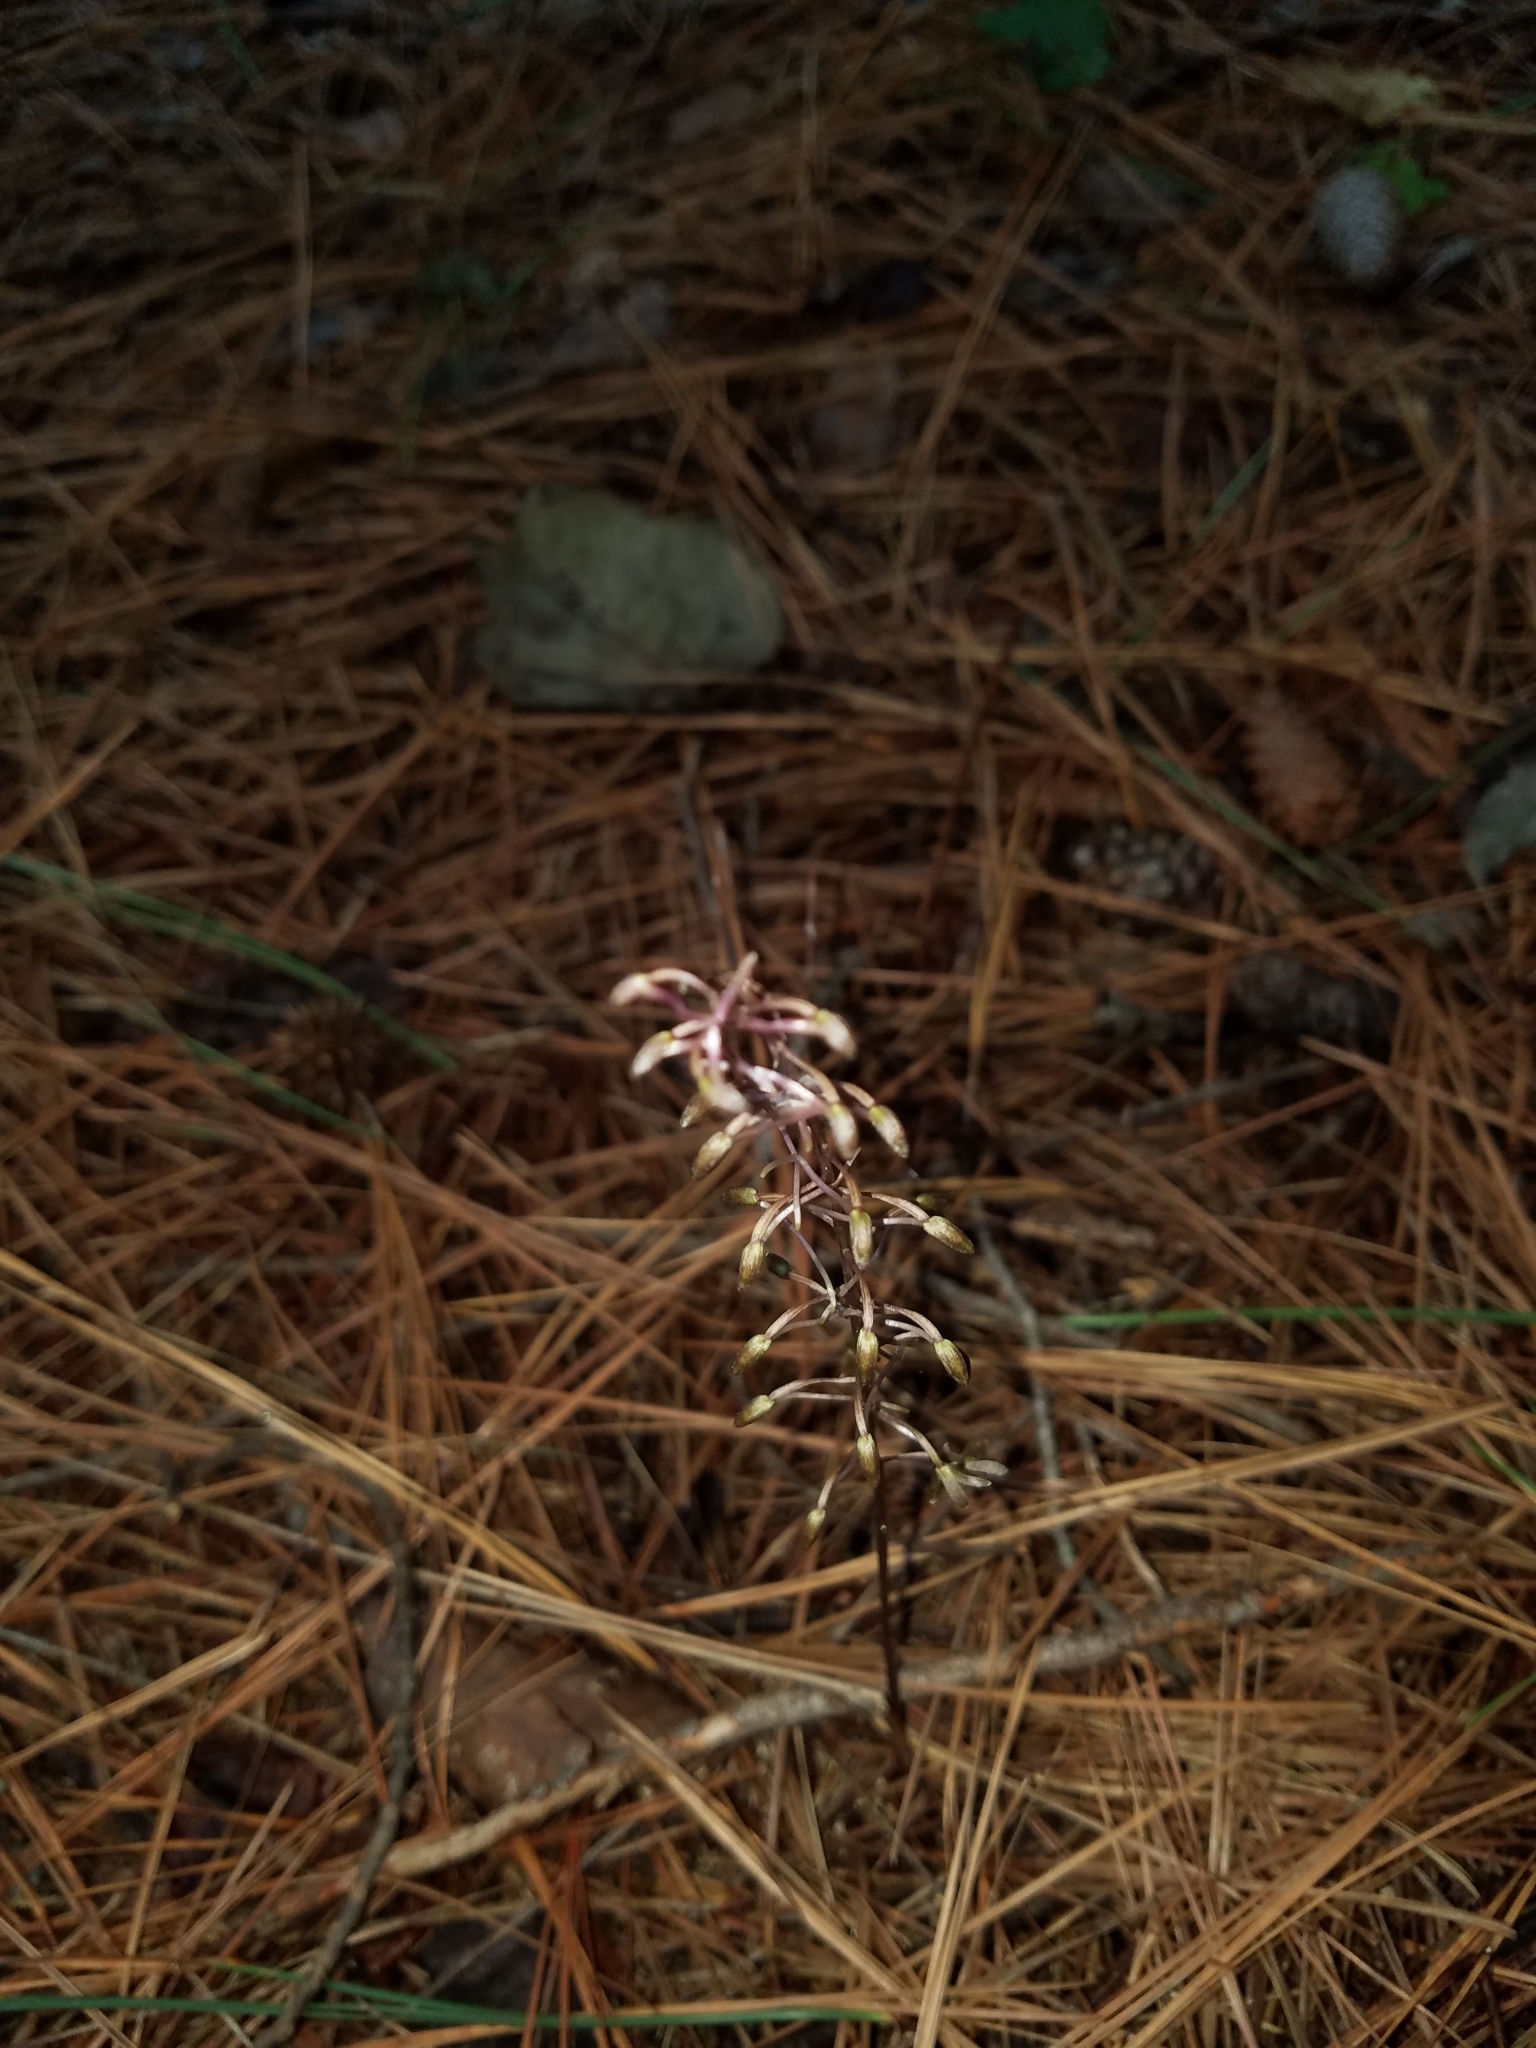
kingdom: Plantae
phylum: Tracheophyta
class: Liliopsida
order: Asparagales
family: Orchidaceae
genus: Tipularia
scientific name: Tipularia discolor
